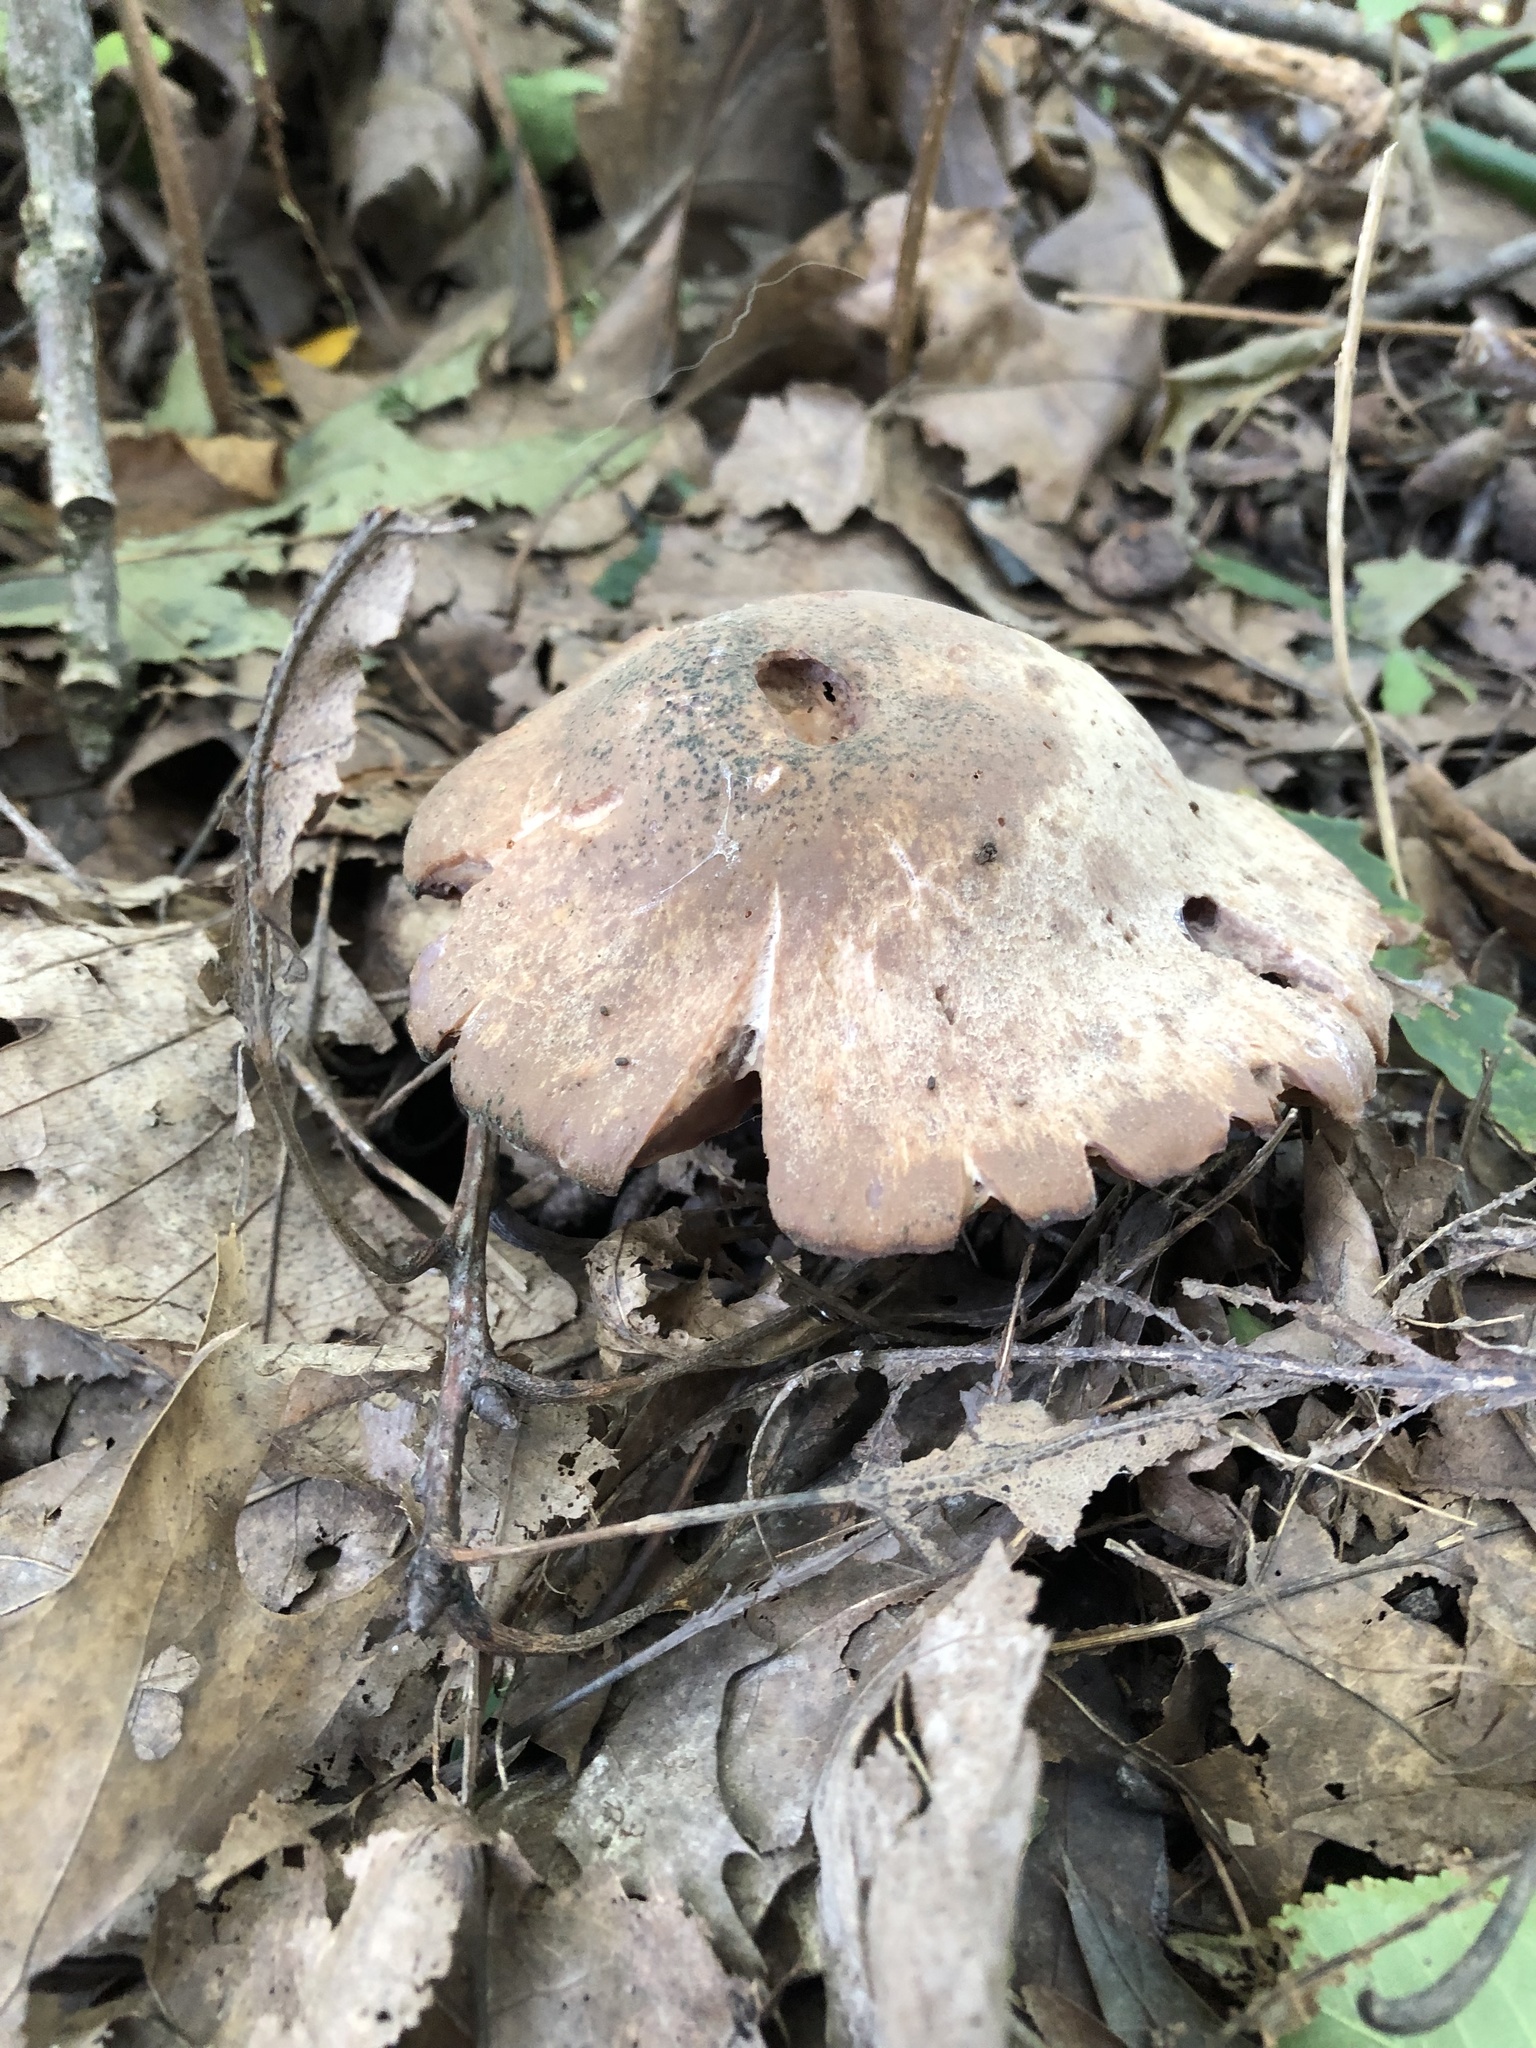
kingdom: Fungi
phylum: Basidiomycota
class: Agaricomycetes
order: Agaricales
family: Hydnangiaceae
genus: Laccaria
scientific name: Laccaria ochropurpurea
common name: Purple laccaria
